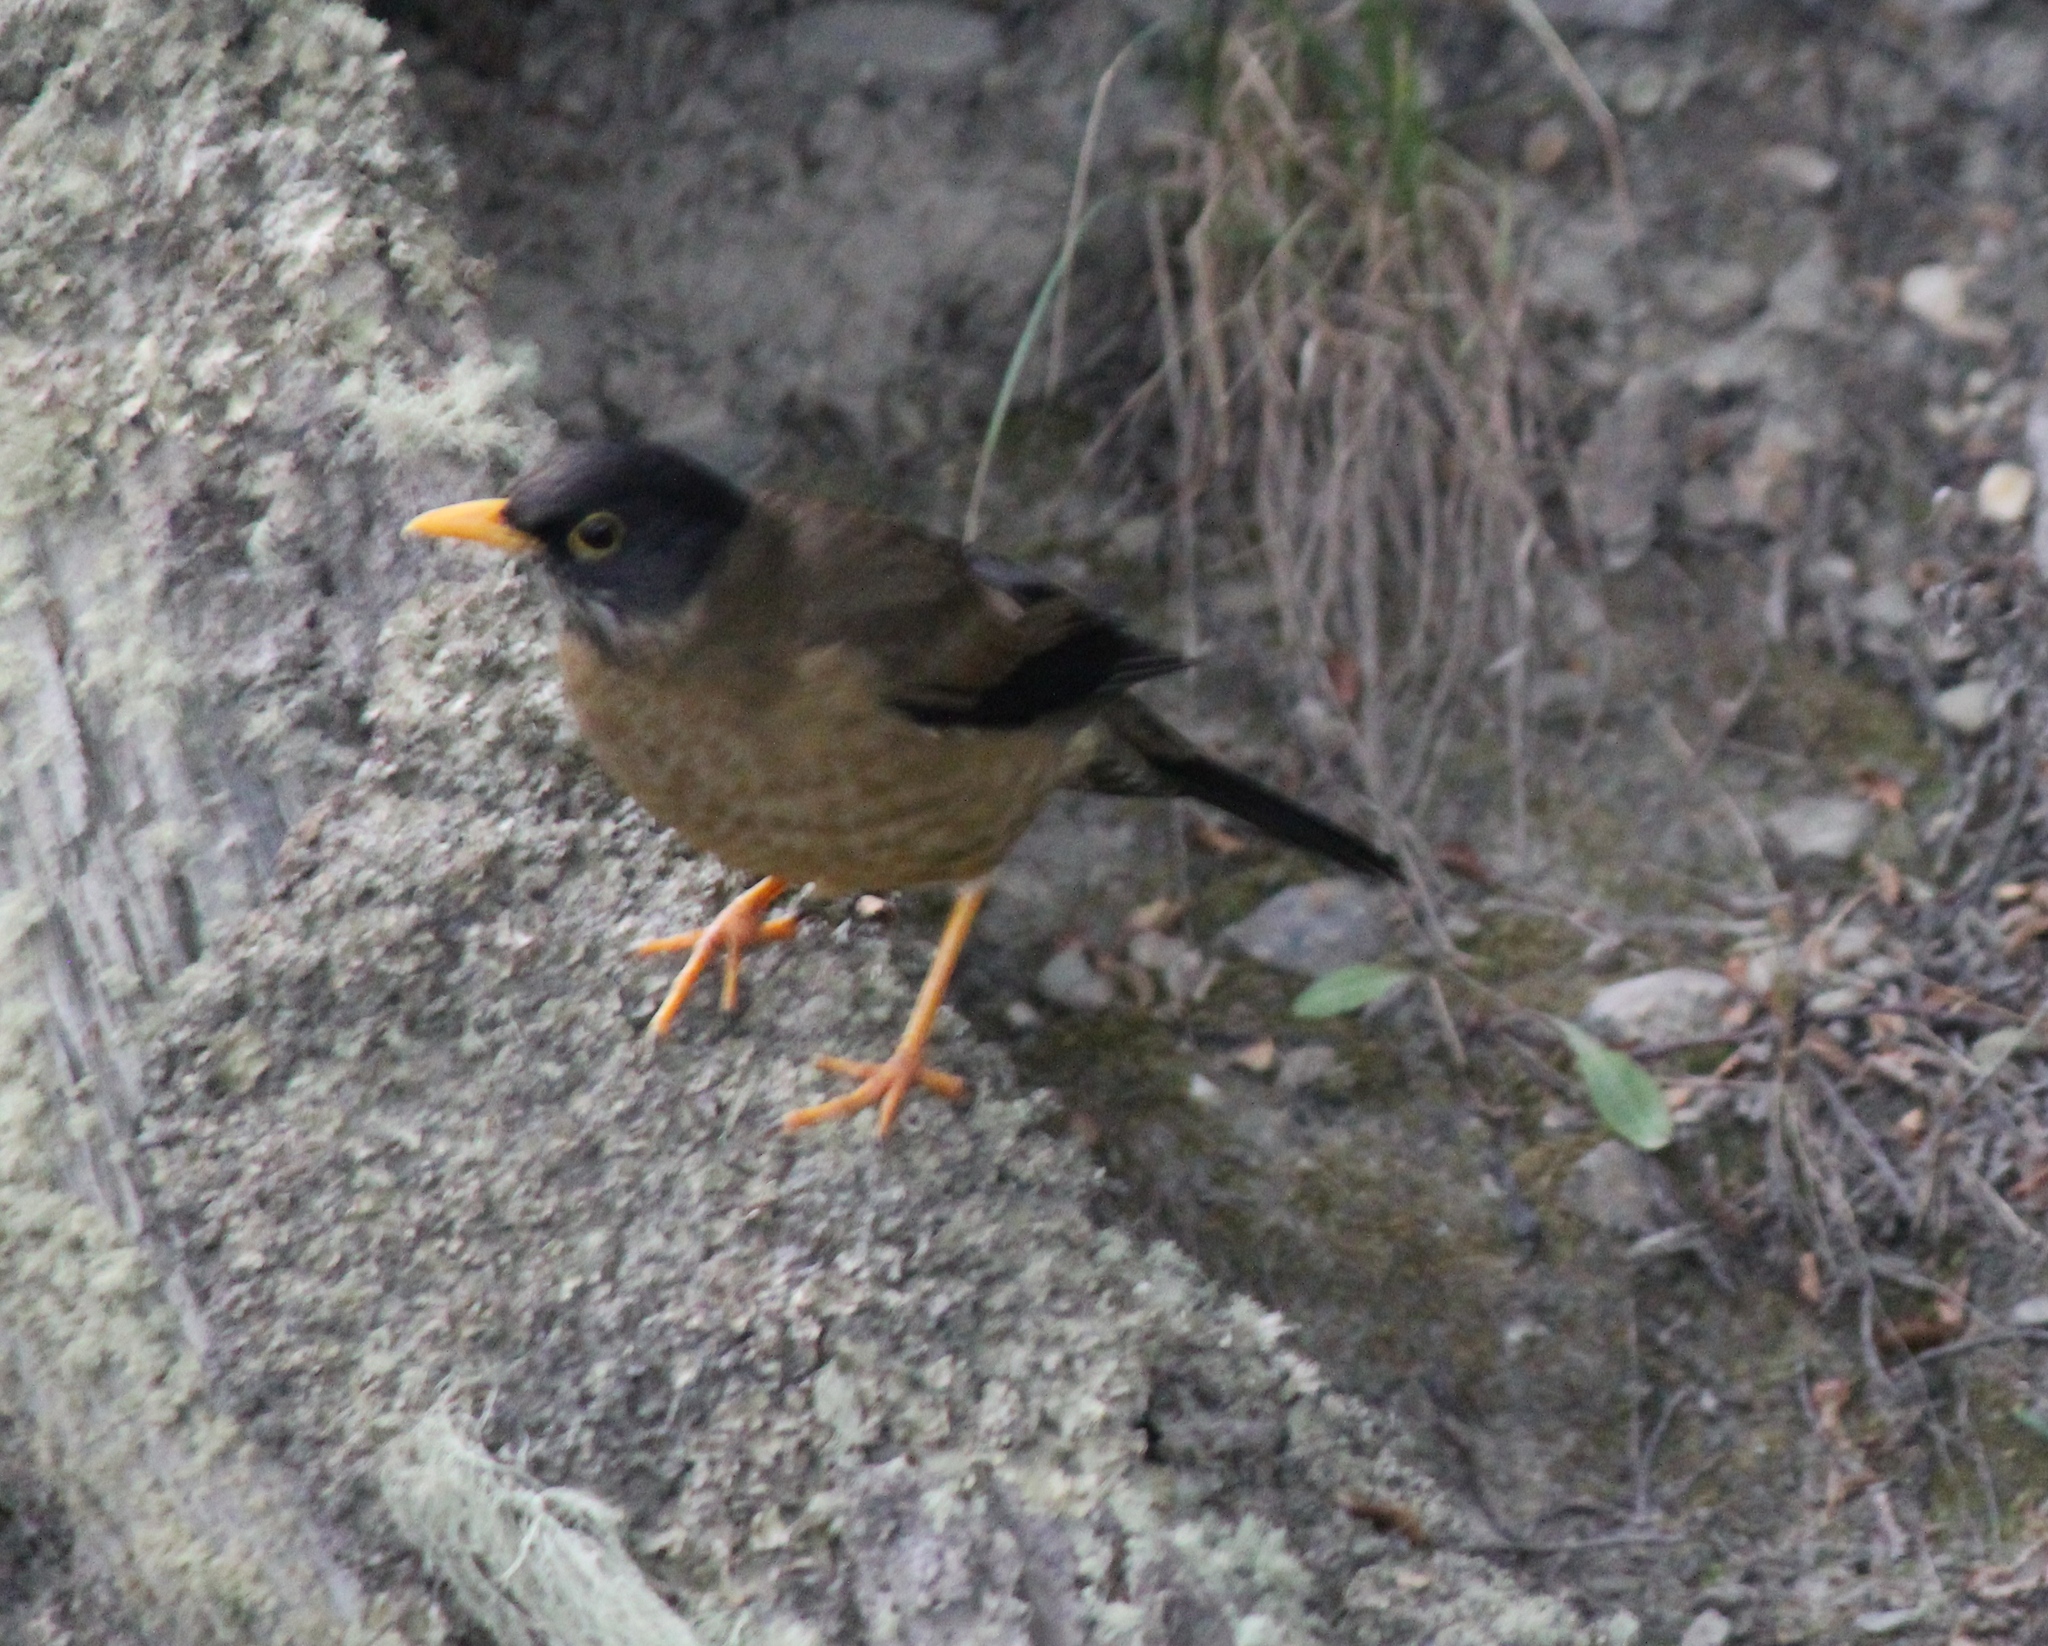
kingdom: Animalia
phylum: Chordata
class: Aves
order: Passeriformes
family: Turdidae
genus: Turdus
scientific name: Turdus falcklandii
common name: Austral thrush
